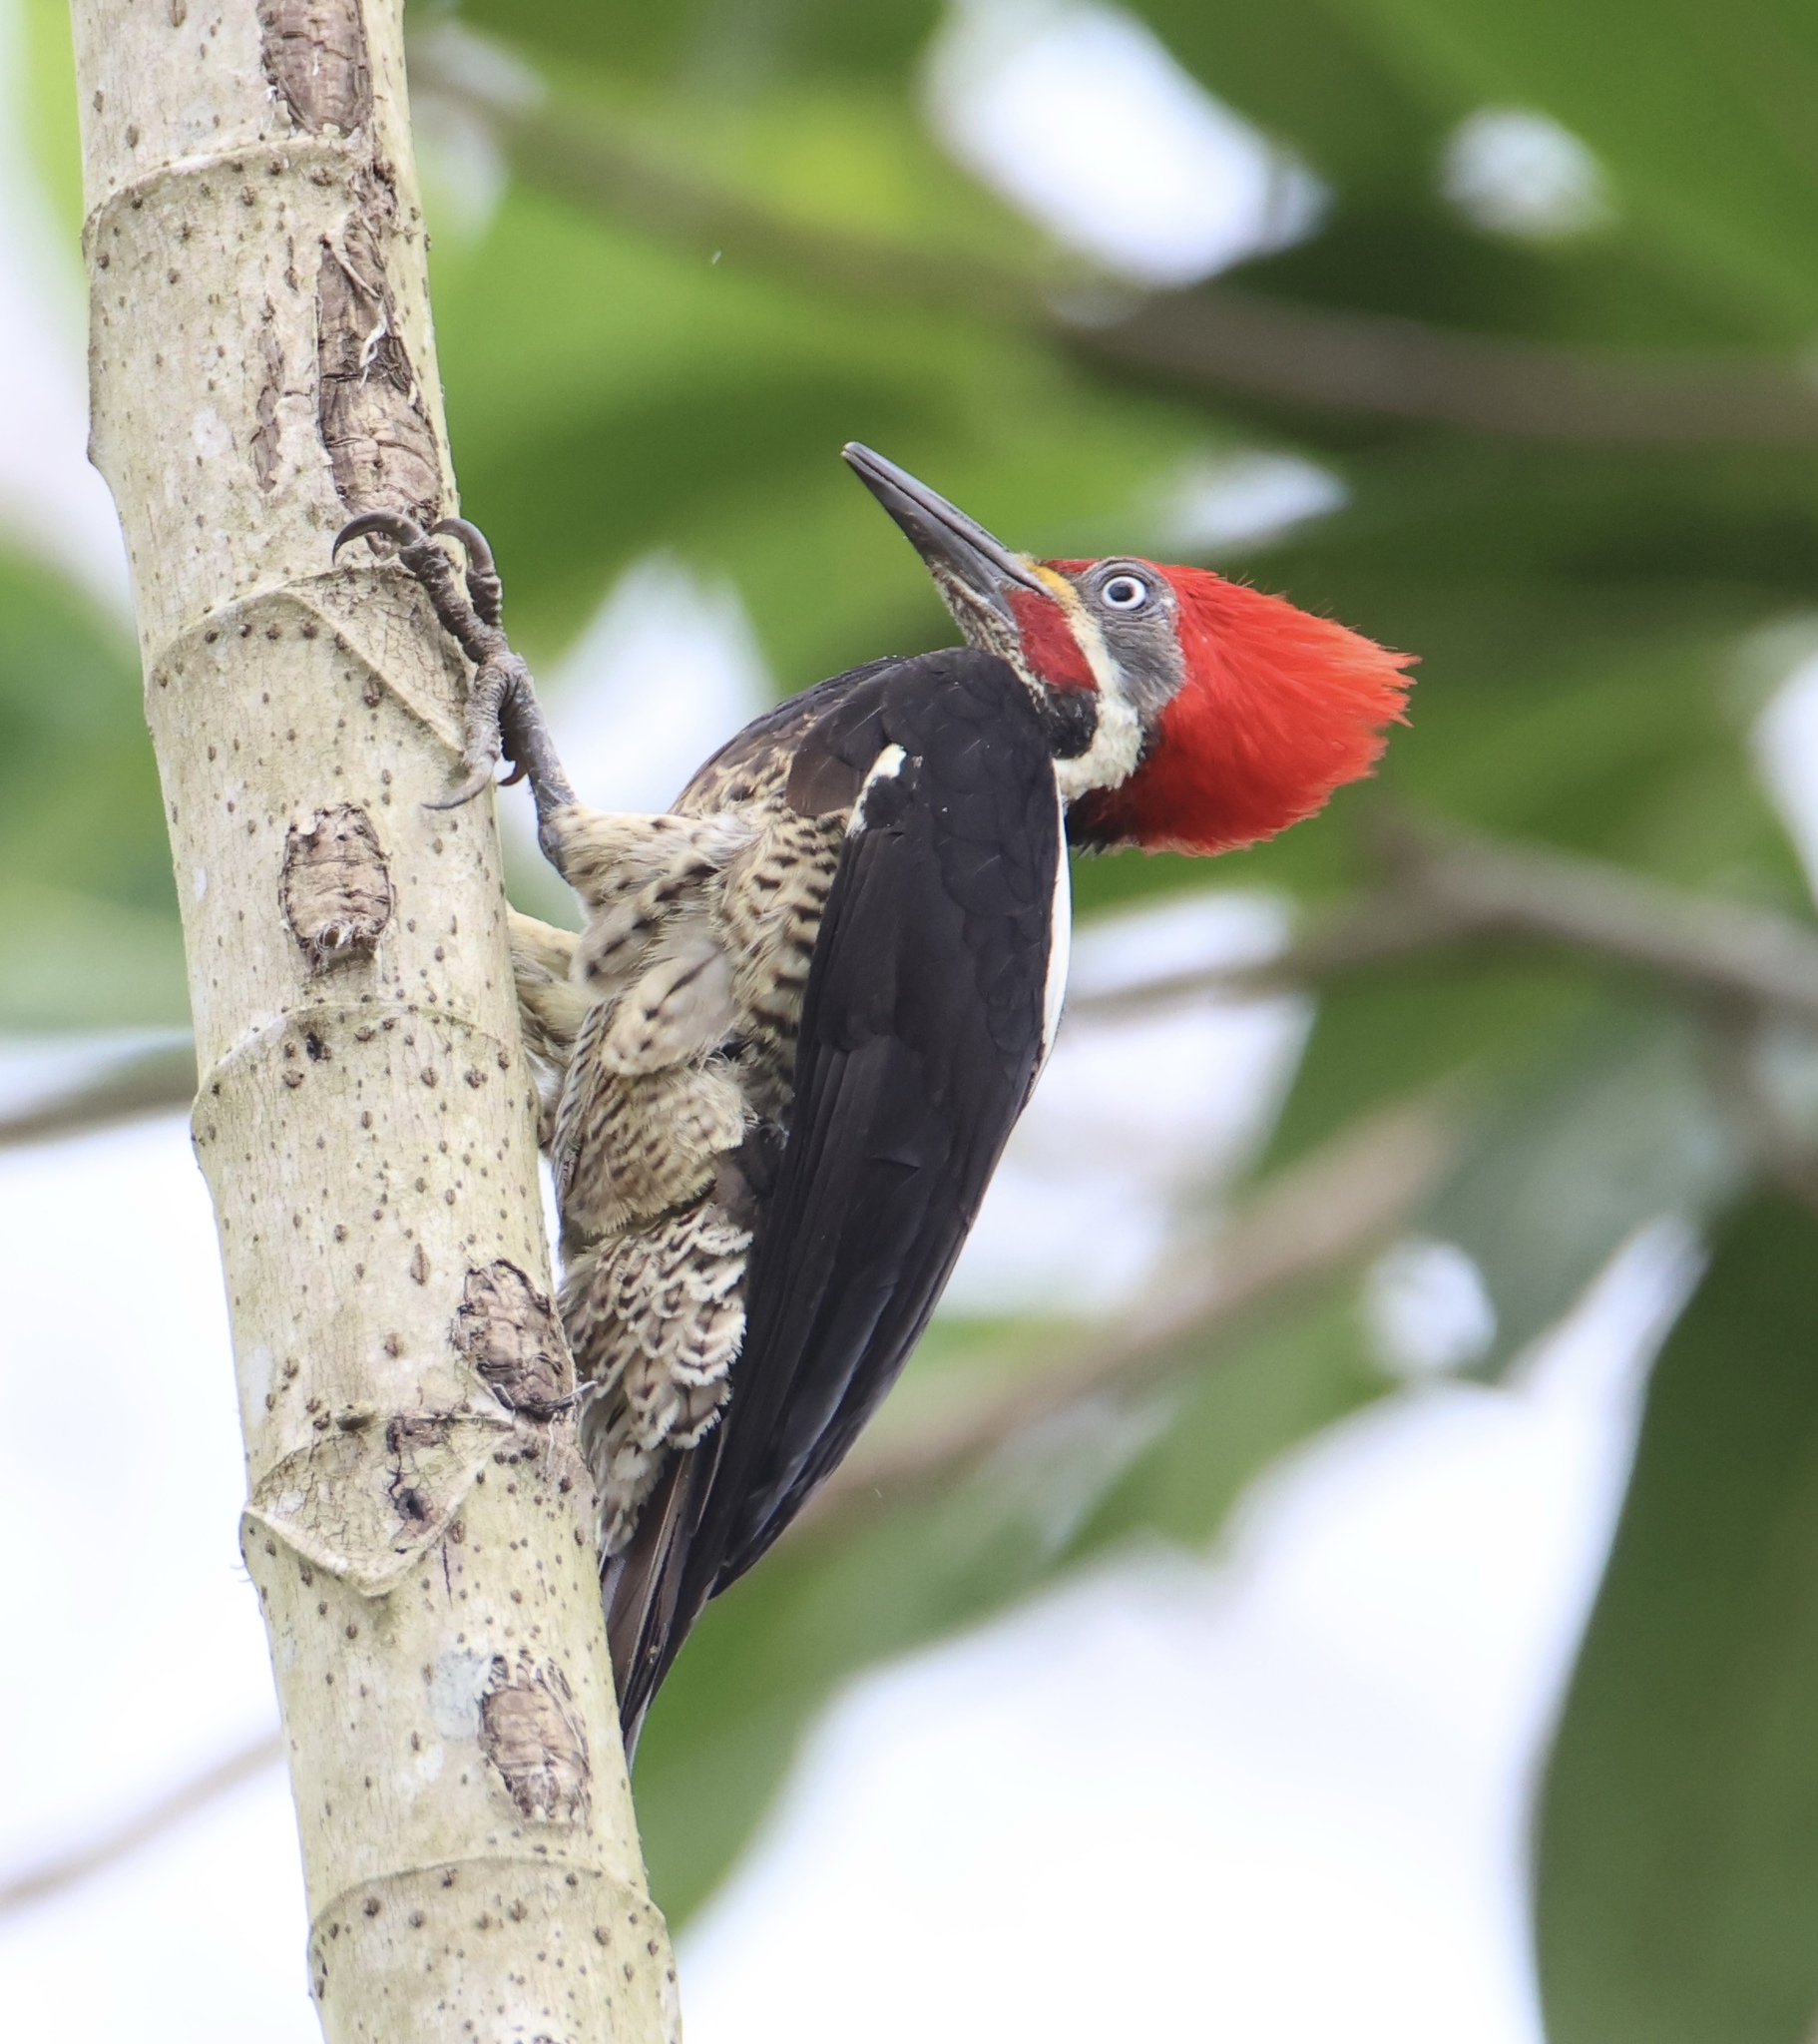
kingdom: Animalia
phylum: Chordata
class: Aves
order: Piciformes
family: Picidae
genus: Dryocopus
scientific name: Dryocopus lineatus
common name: Lineated woodpecker
